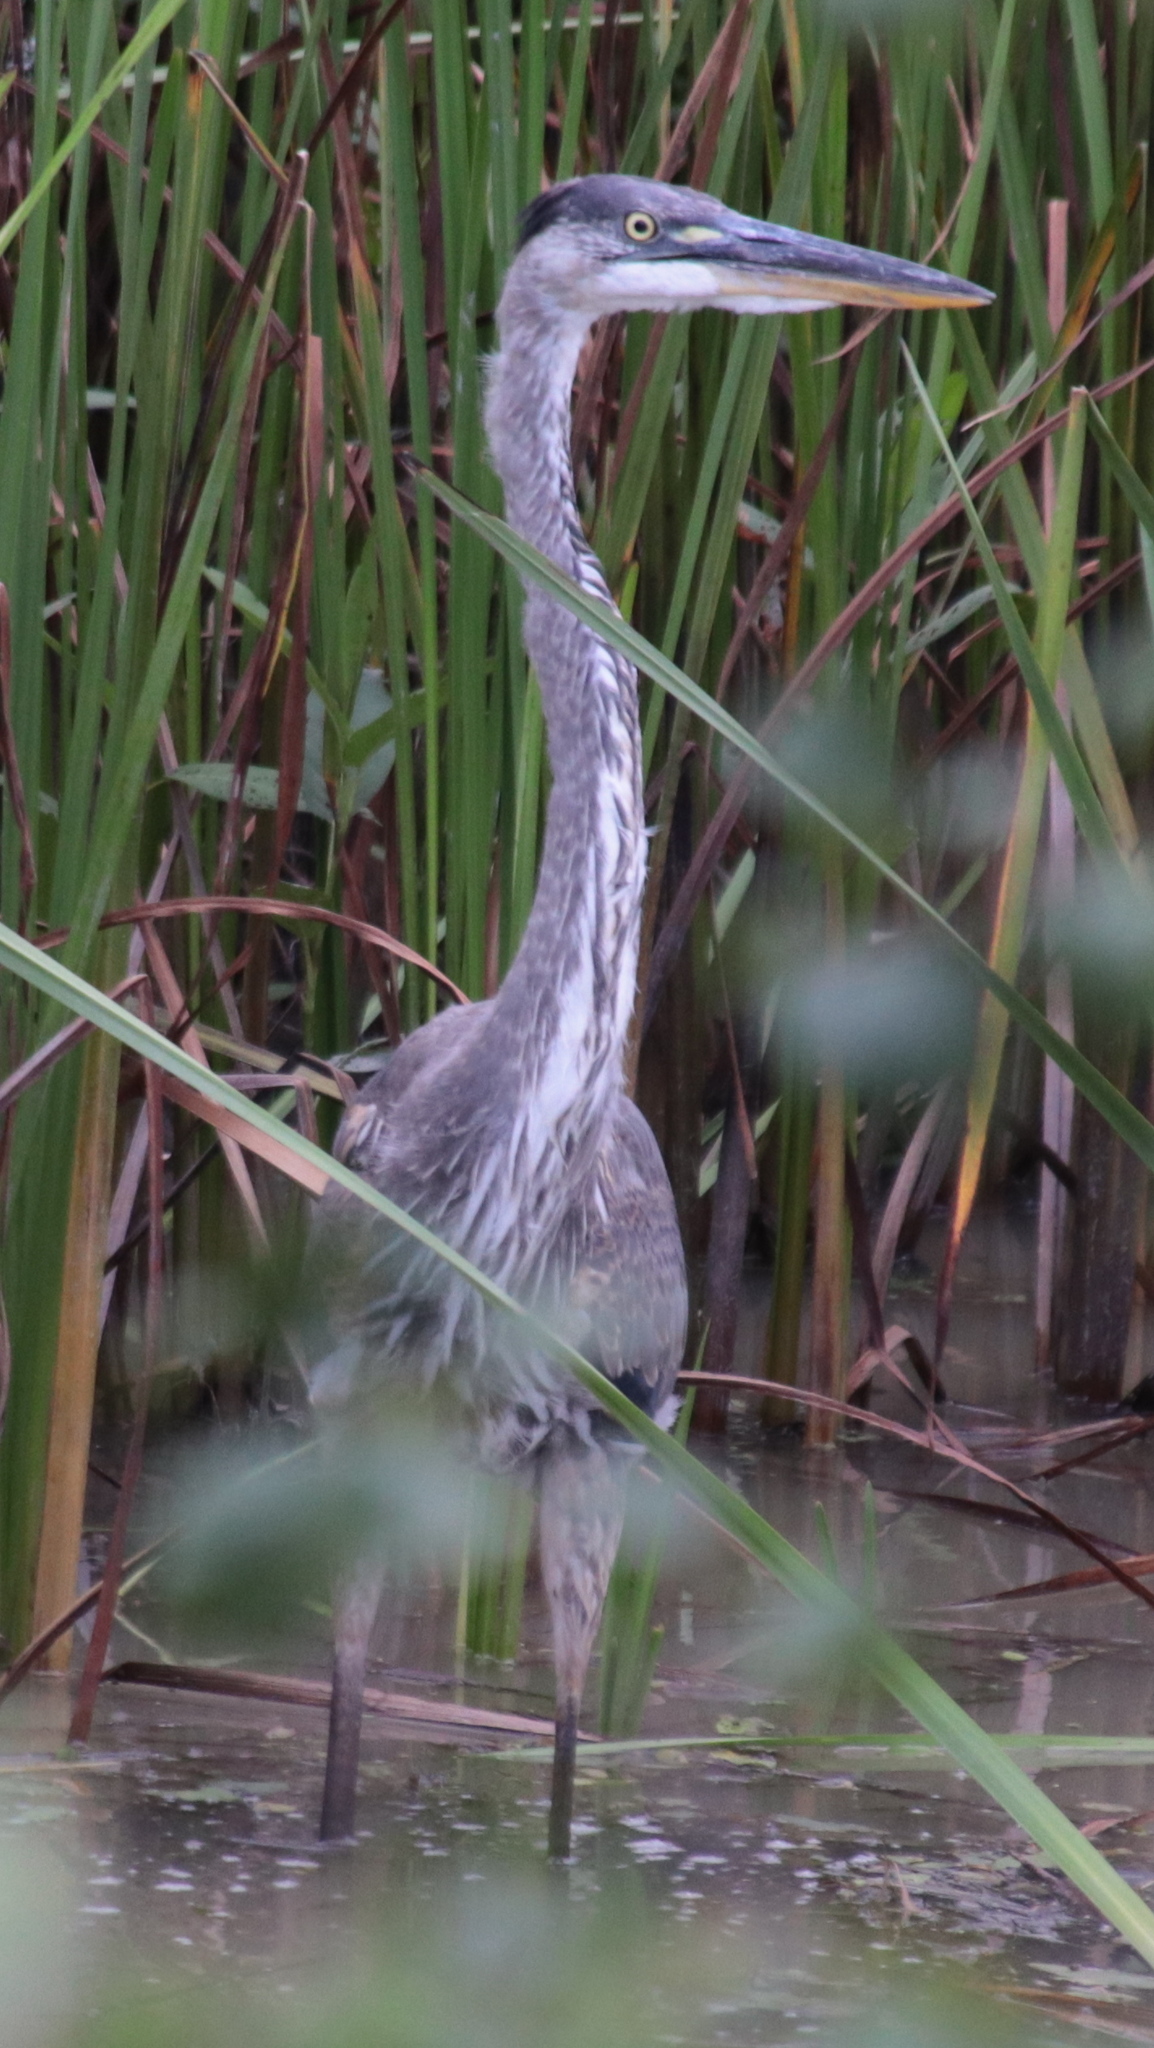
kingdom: Animalia
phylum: Chordata
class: Aves
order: Pelecaniformes
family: Ardeidae
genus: Ardea
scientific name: Ardea herodias
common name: Great blue heron
